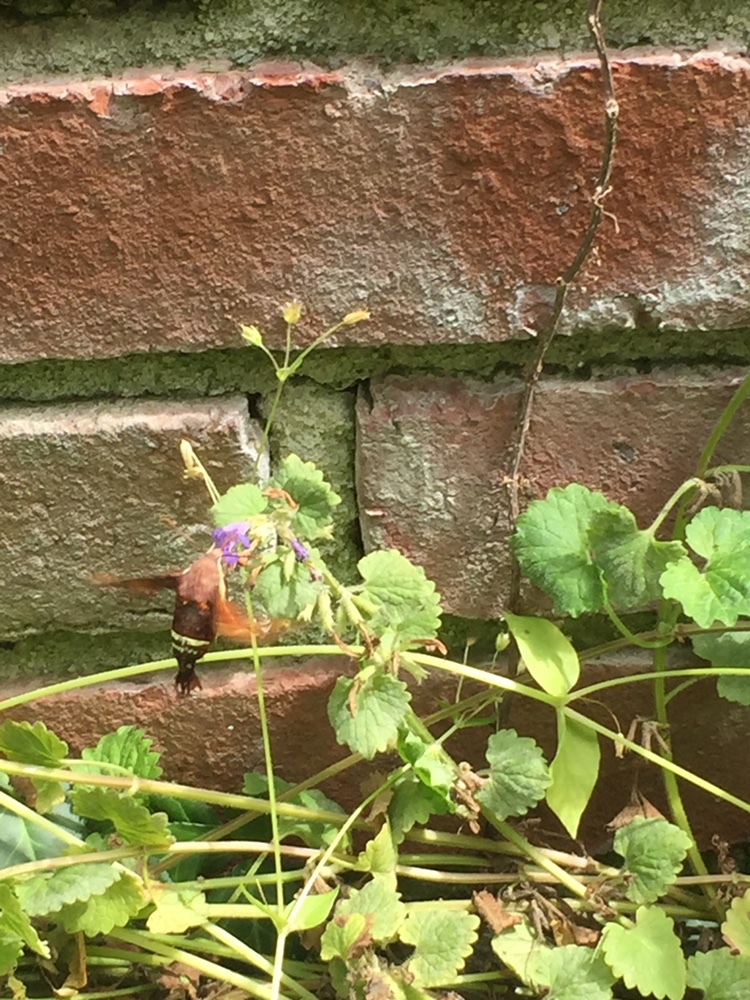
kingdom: Animalia
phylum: Arthropoda
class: Insecta
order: Lepidoptera
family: Sphingidae
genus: Amphion
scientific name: Amphion floridensis
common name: Nessus sphinx
